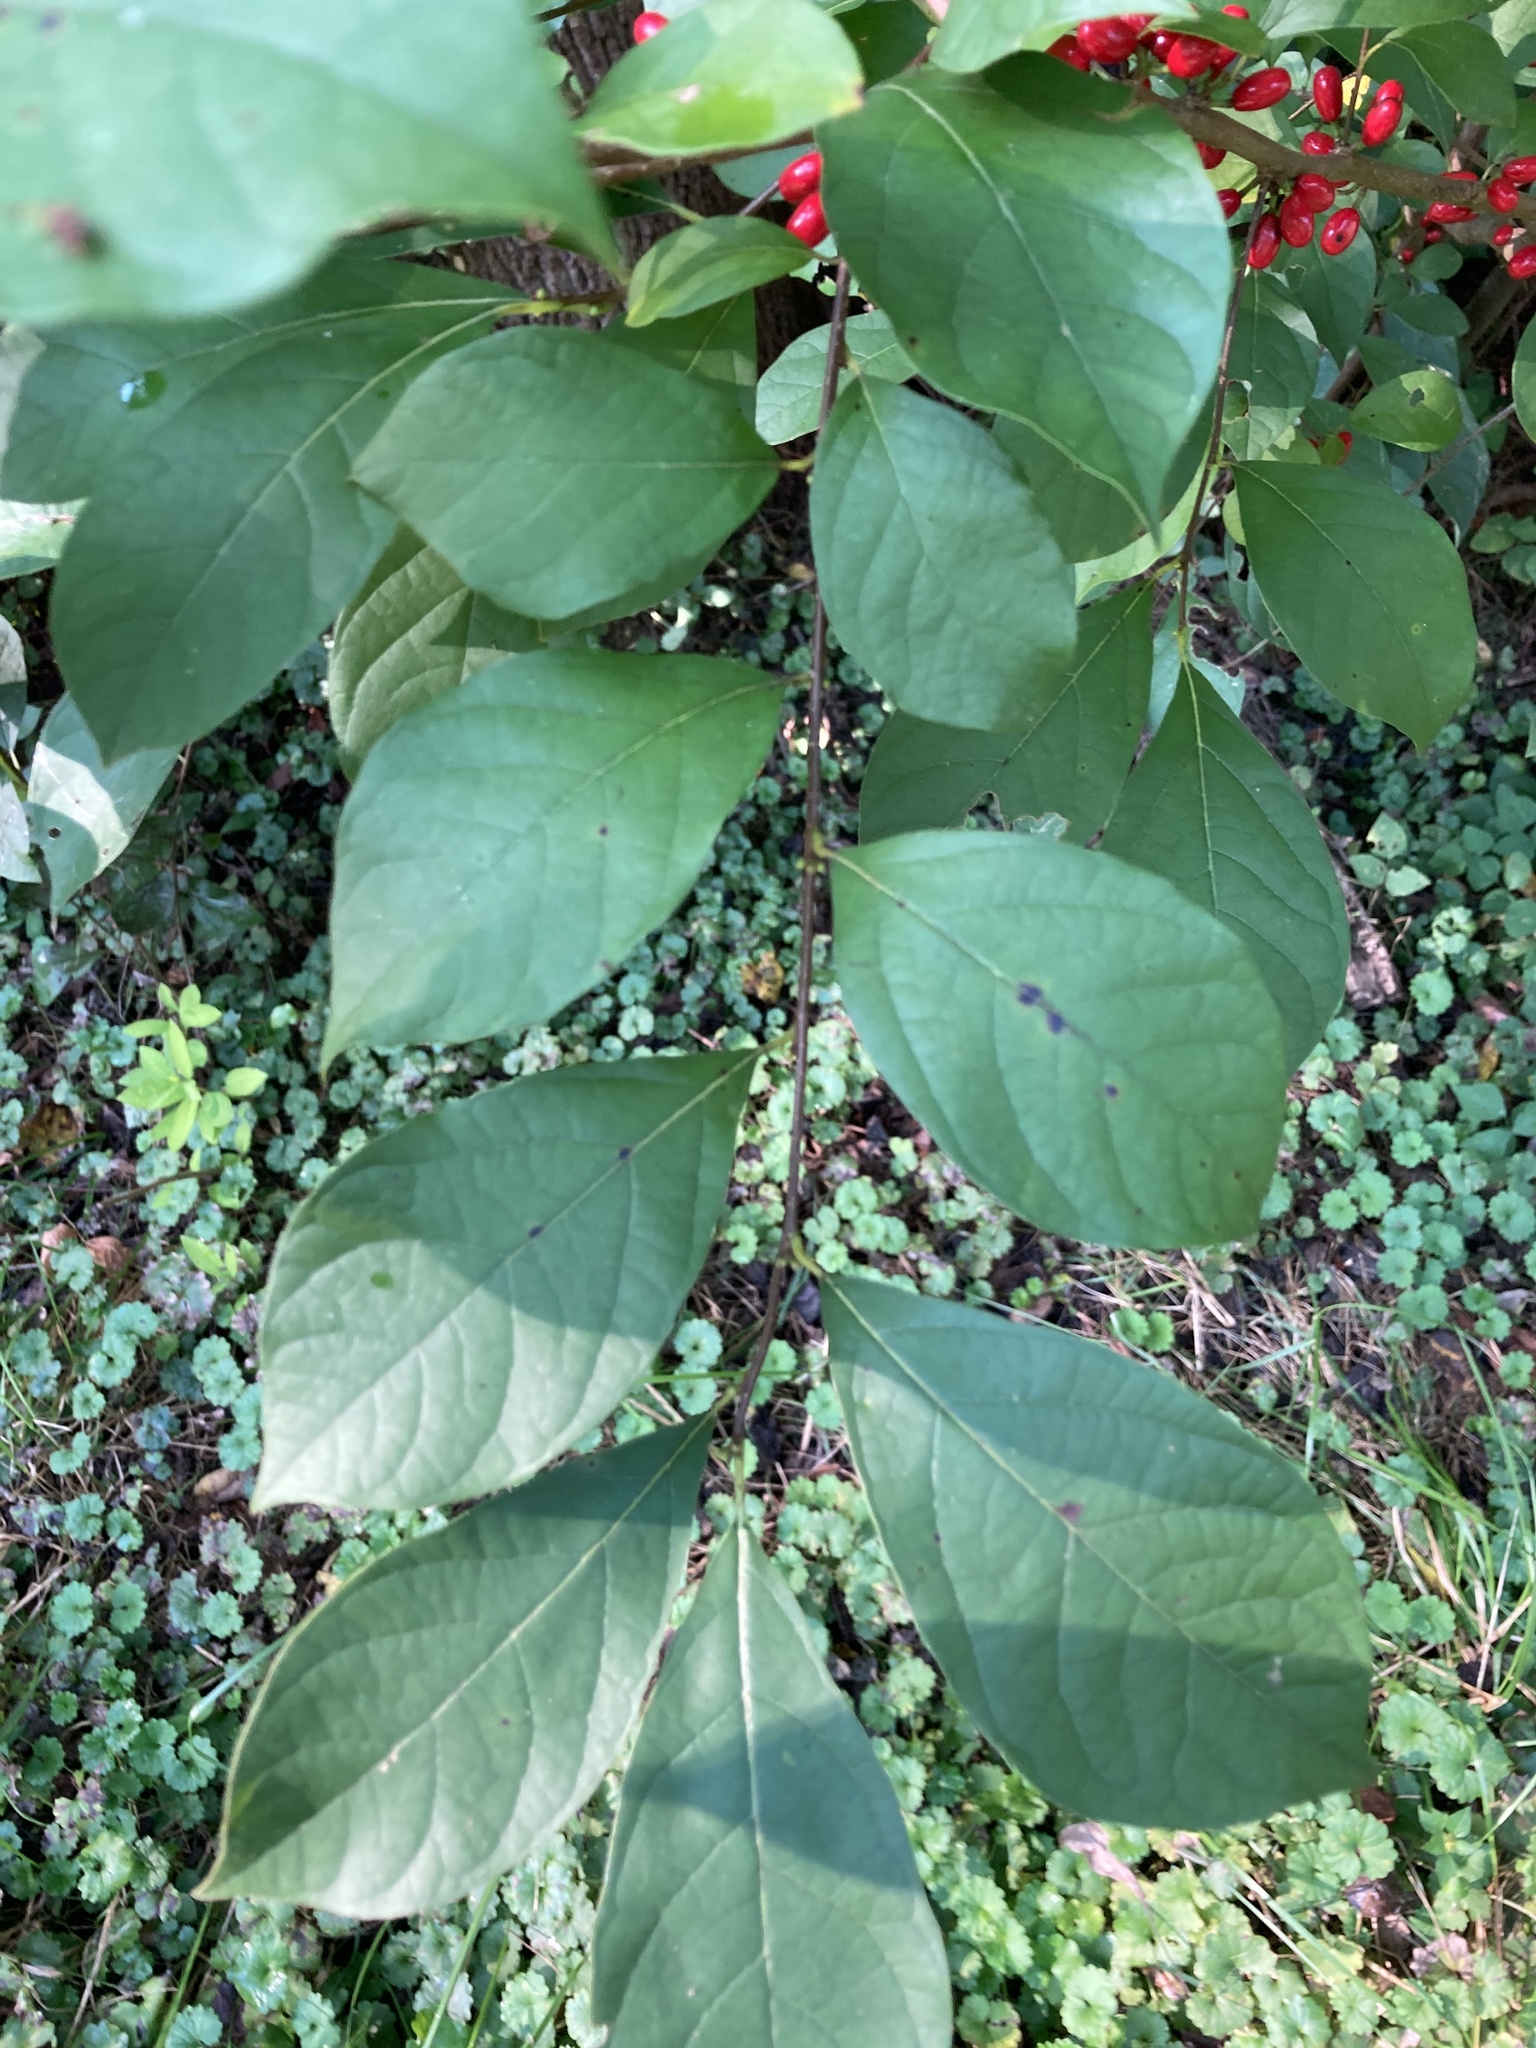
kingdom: Plantae
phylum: Tracheophyta
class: Magnoliopsida
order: Laurales
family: Lauraceae
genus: Lindera
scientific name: Lindera benzoin
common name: Spicebush
